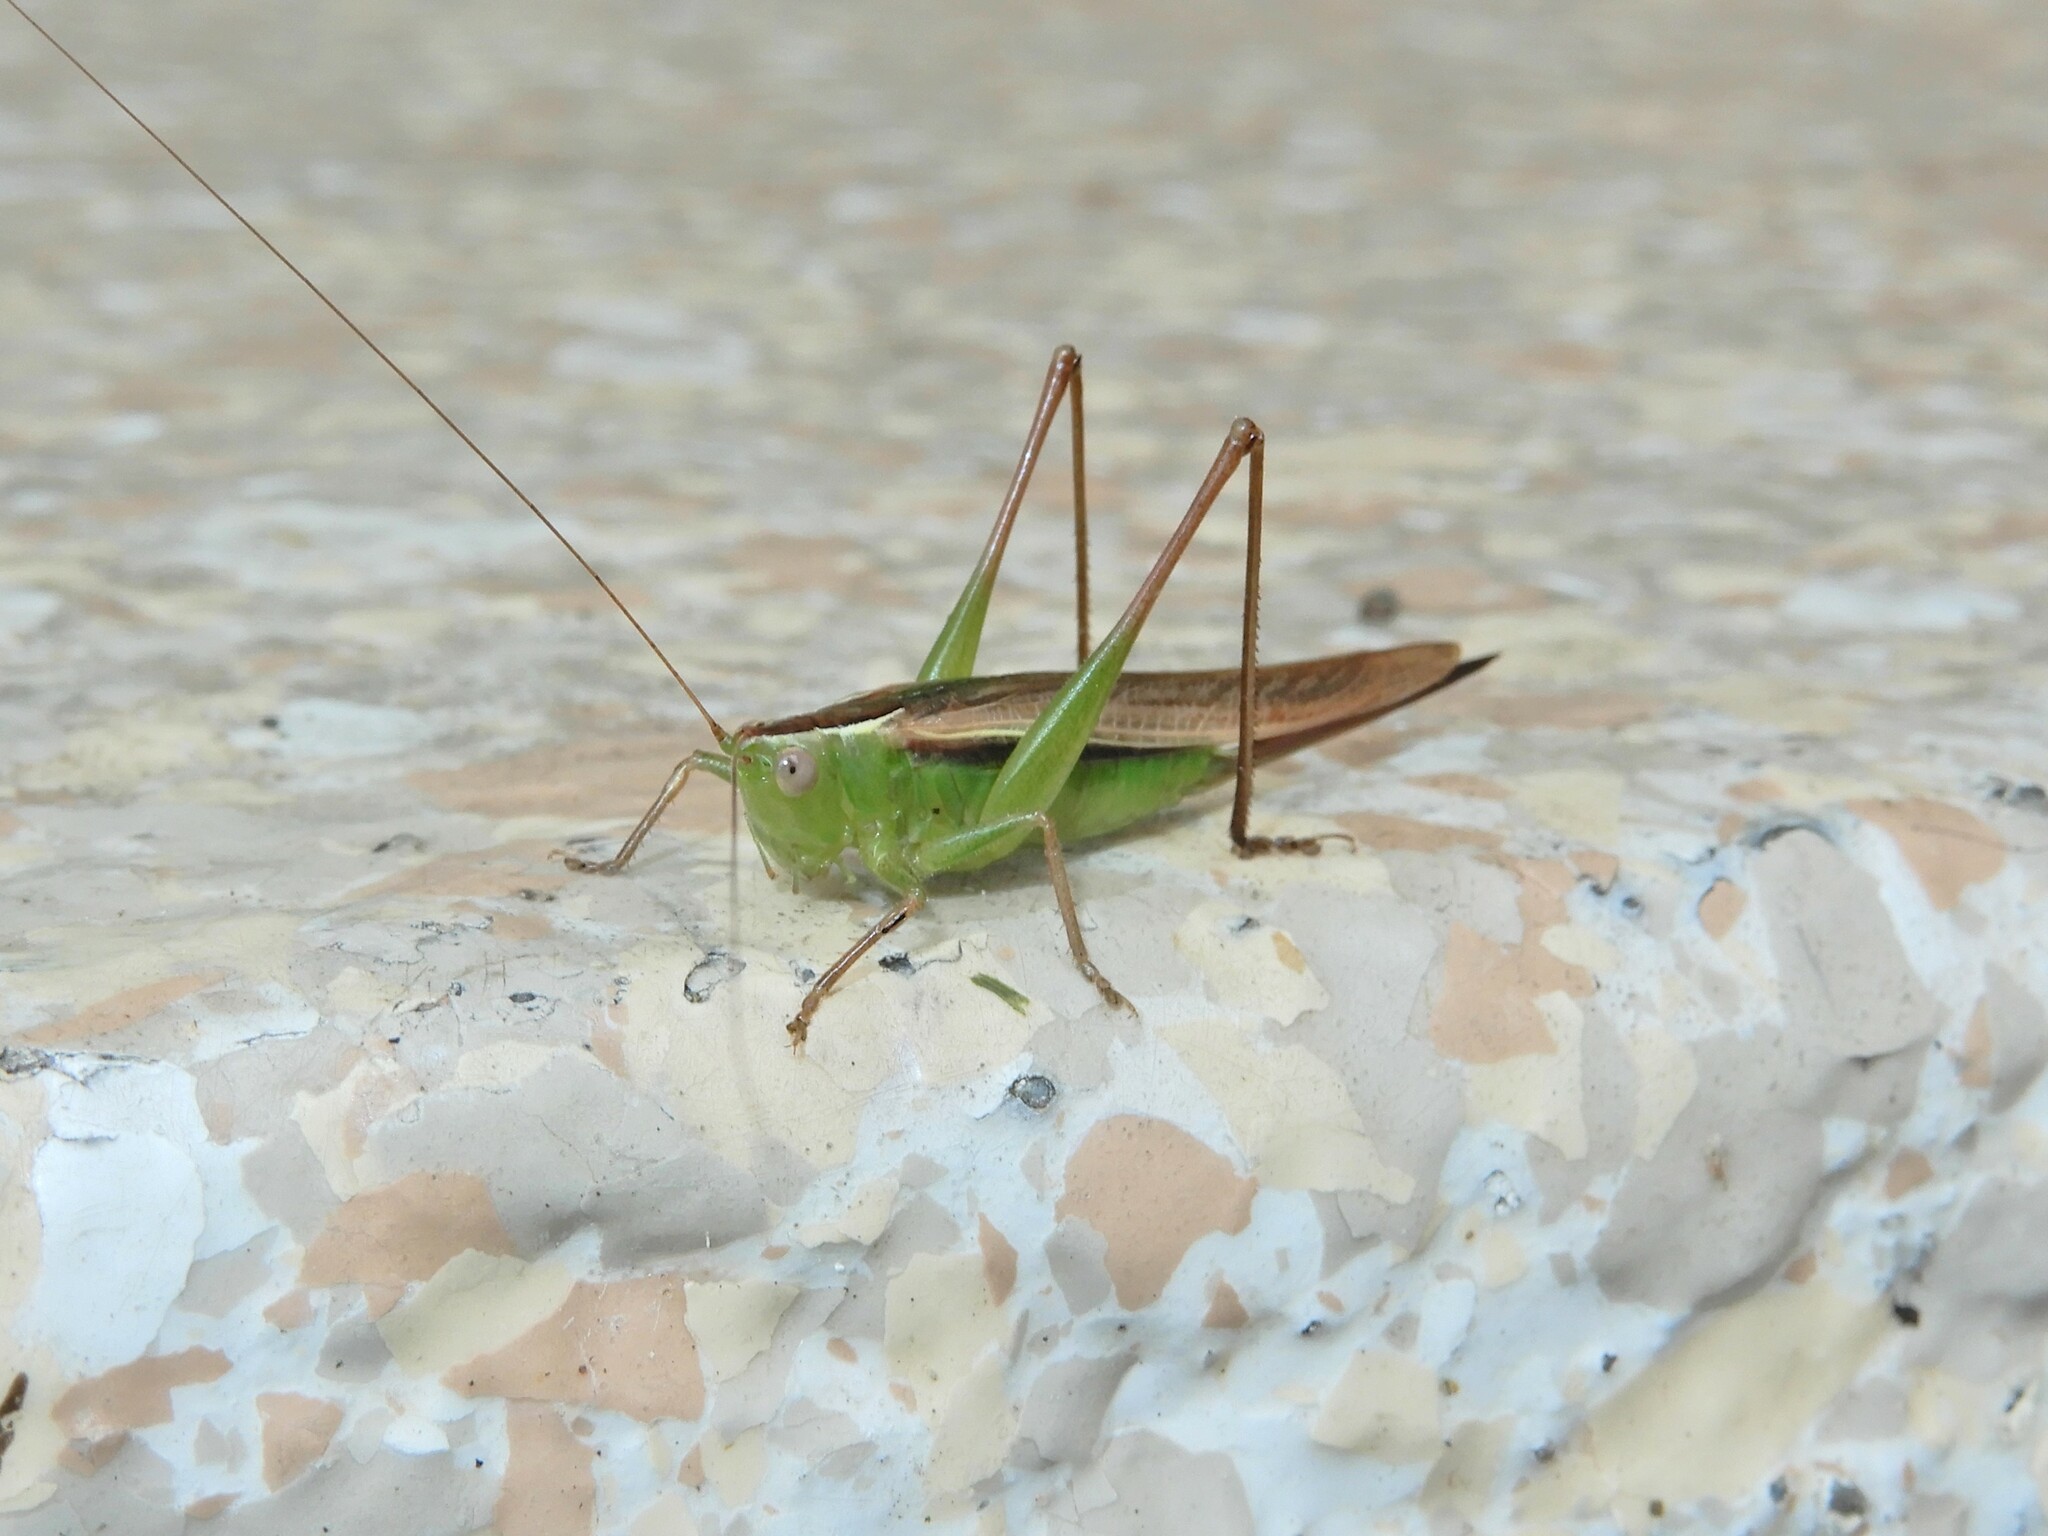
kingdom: Animalia
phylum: Arthropoda
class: Insecta
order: Orthoptera
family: Tettigoniidae
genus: Conocephalus
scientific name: Conocephalus albescens
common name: Whitish meadow katydid
